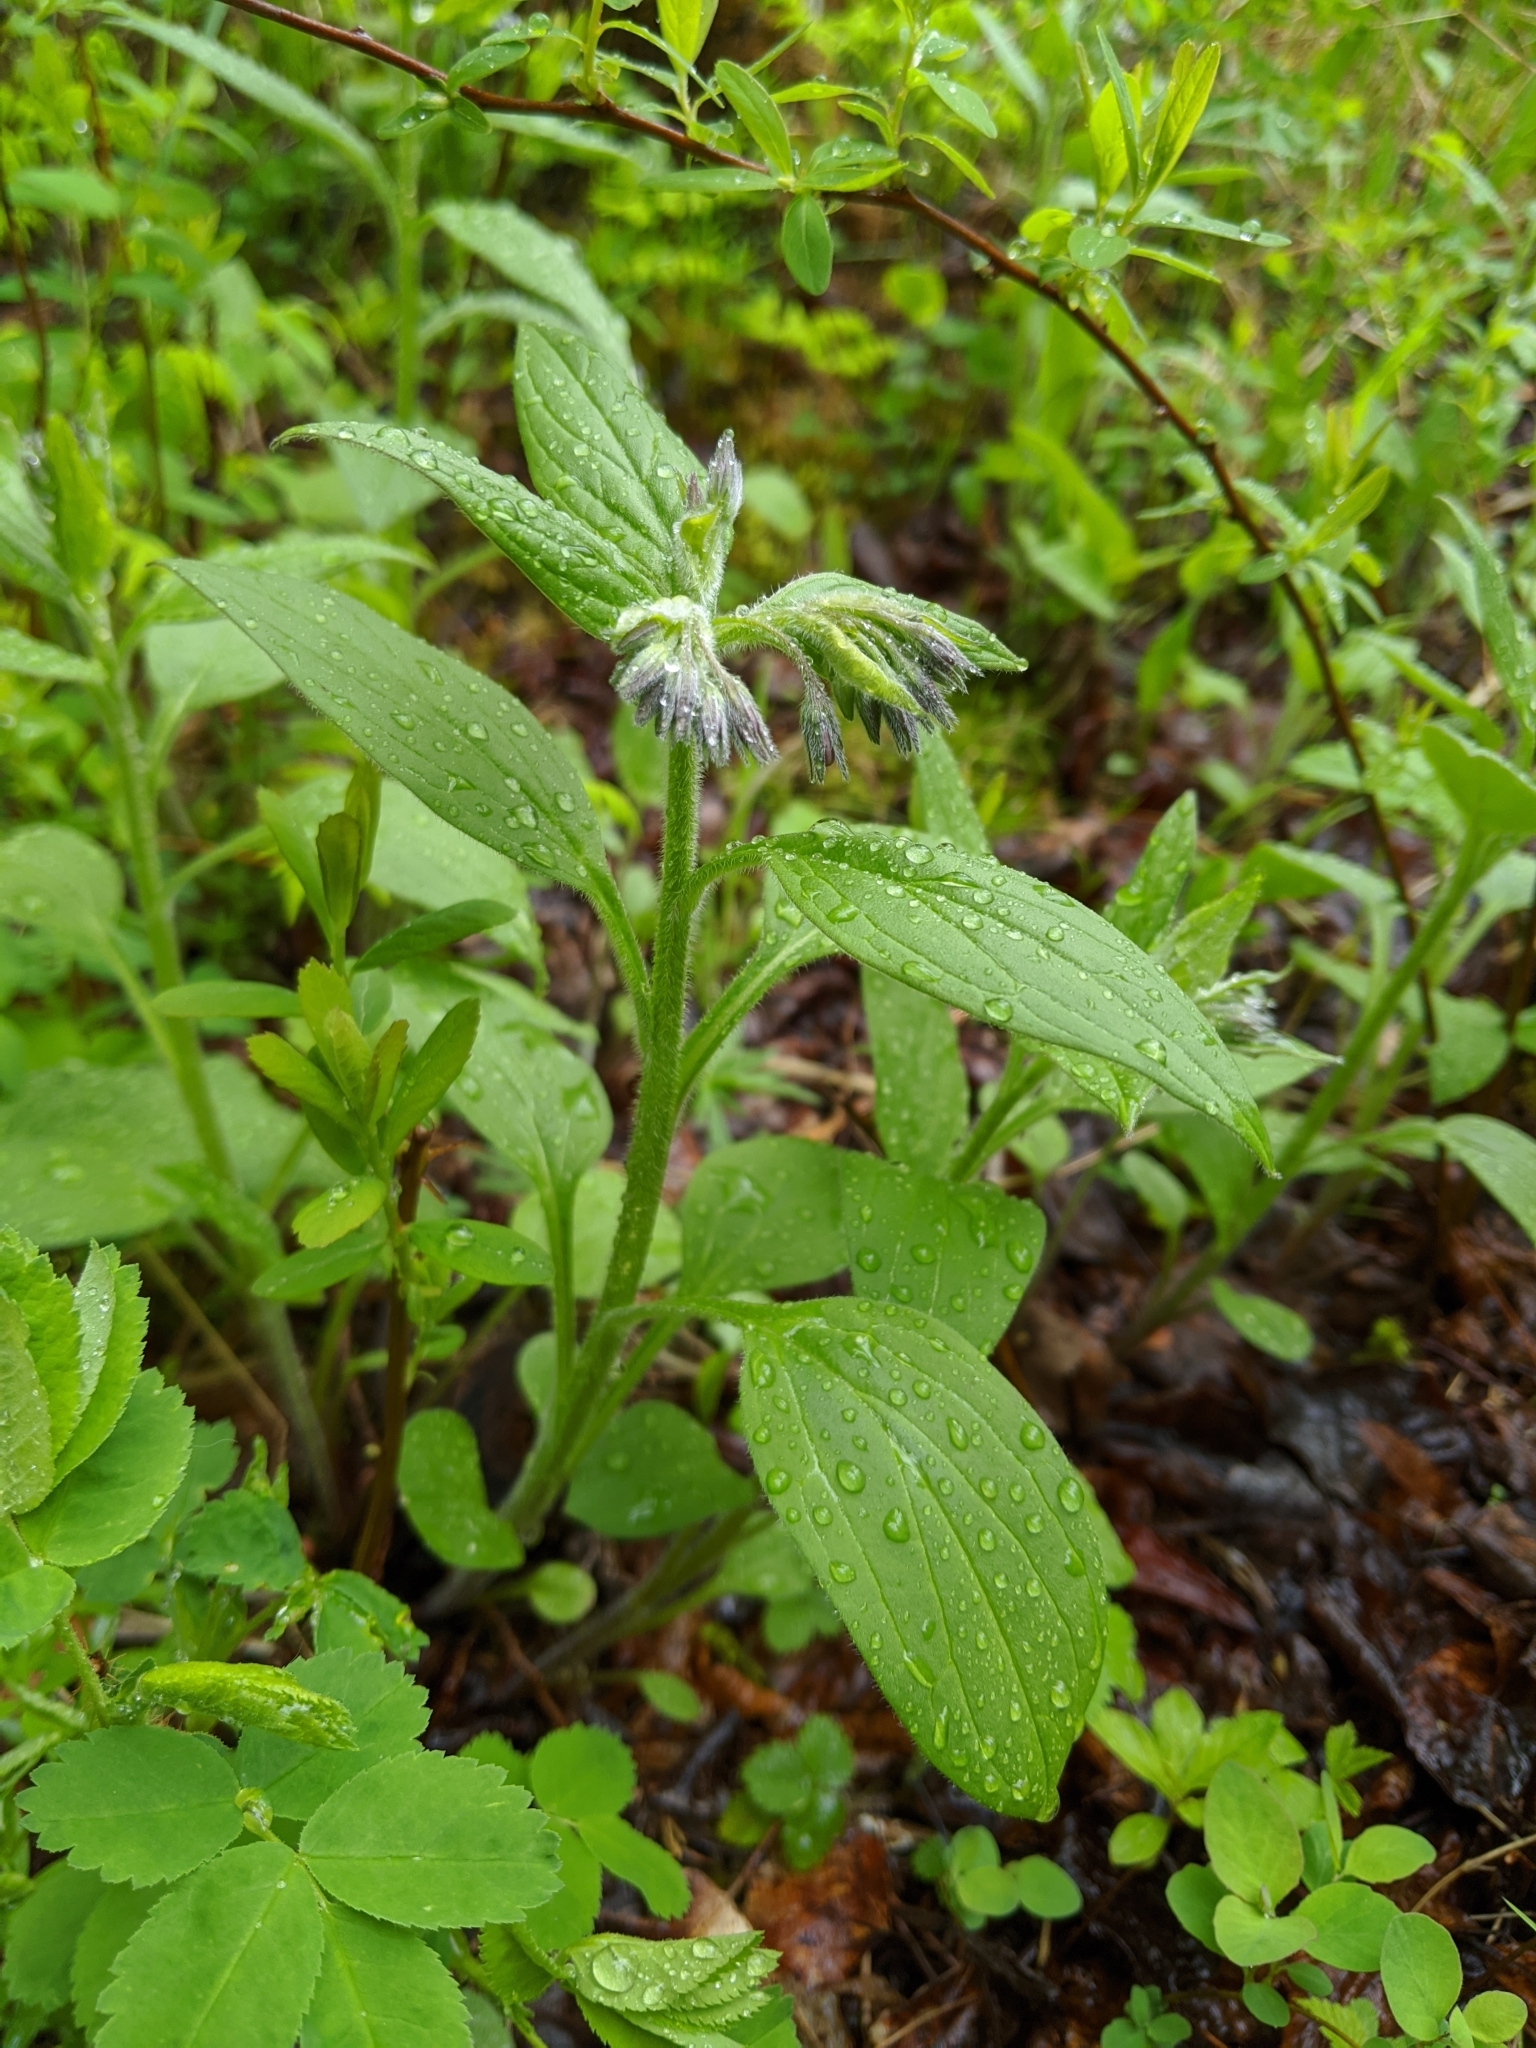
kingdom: Plantae
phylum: Tracheophyta
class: Magnoliopsida
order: Boraginales
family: Boraginaceae
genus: Mertensia
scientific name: Mertensia paniculata
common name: Panicled bluebells
